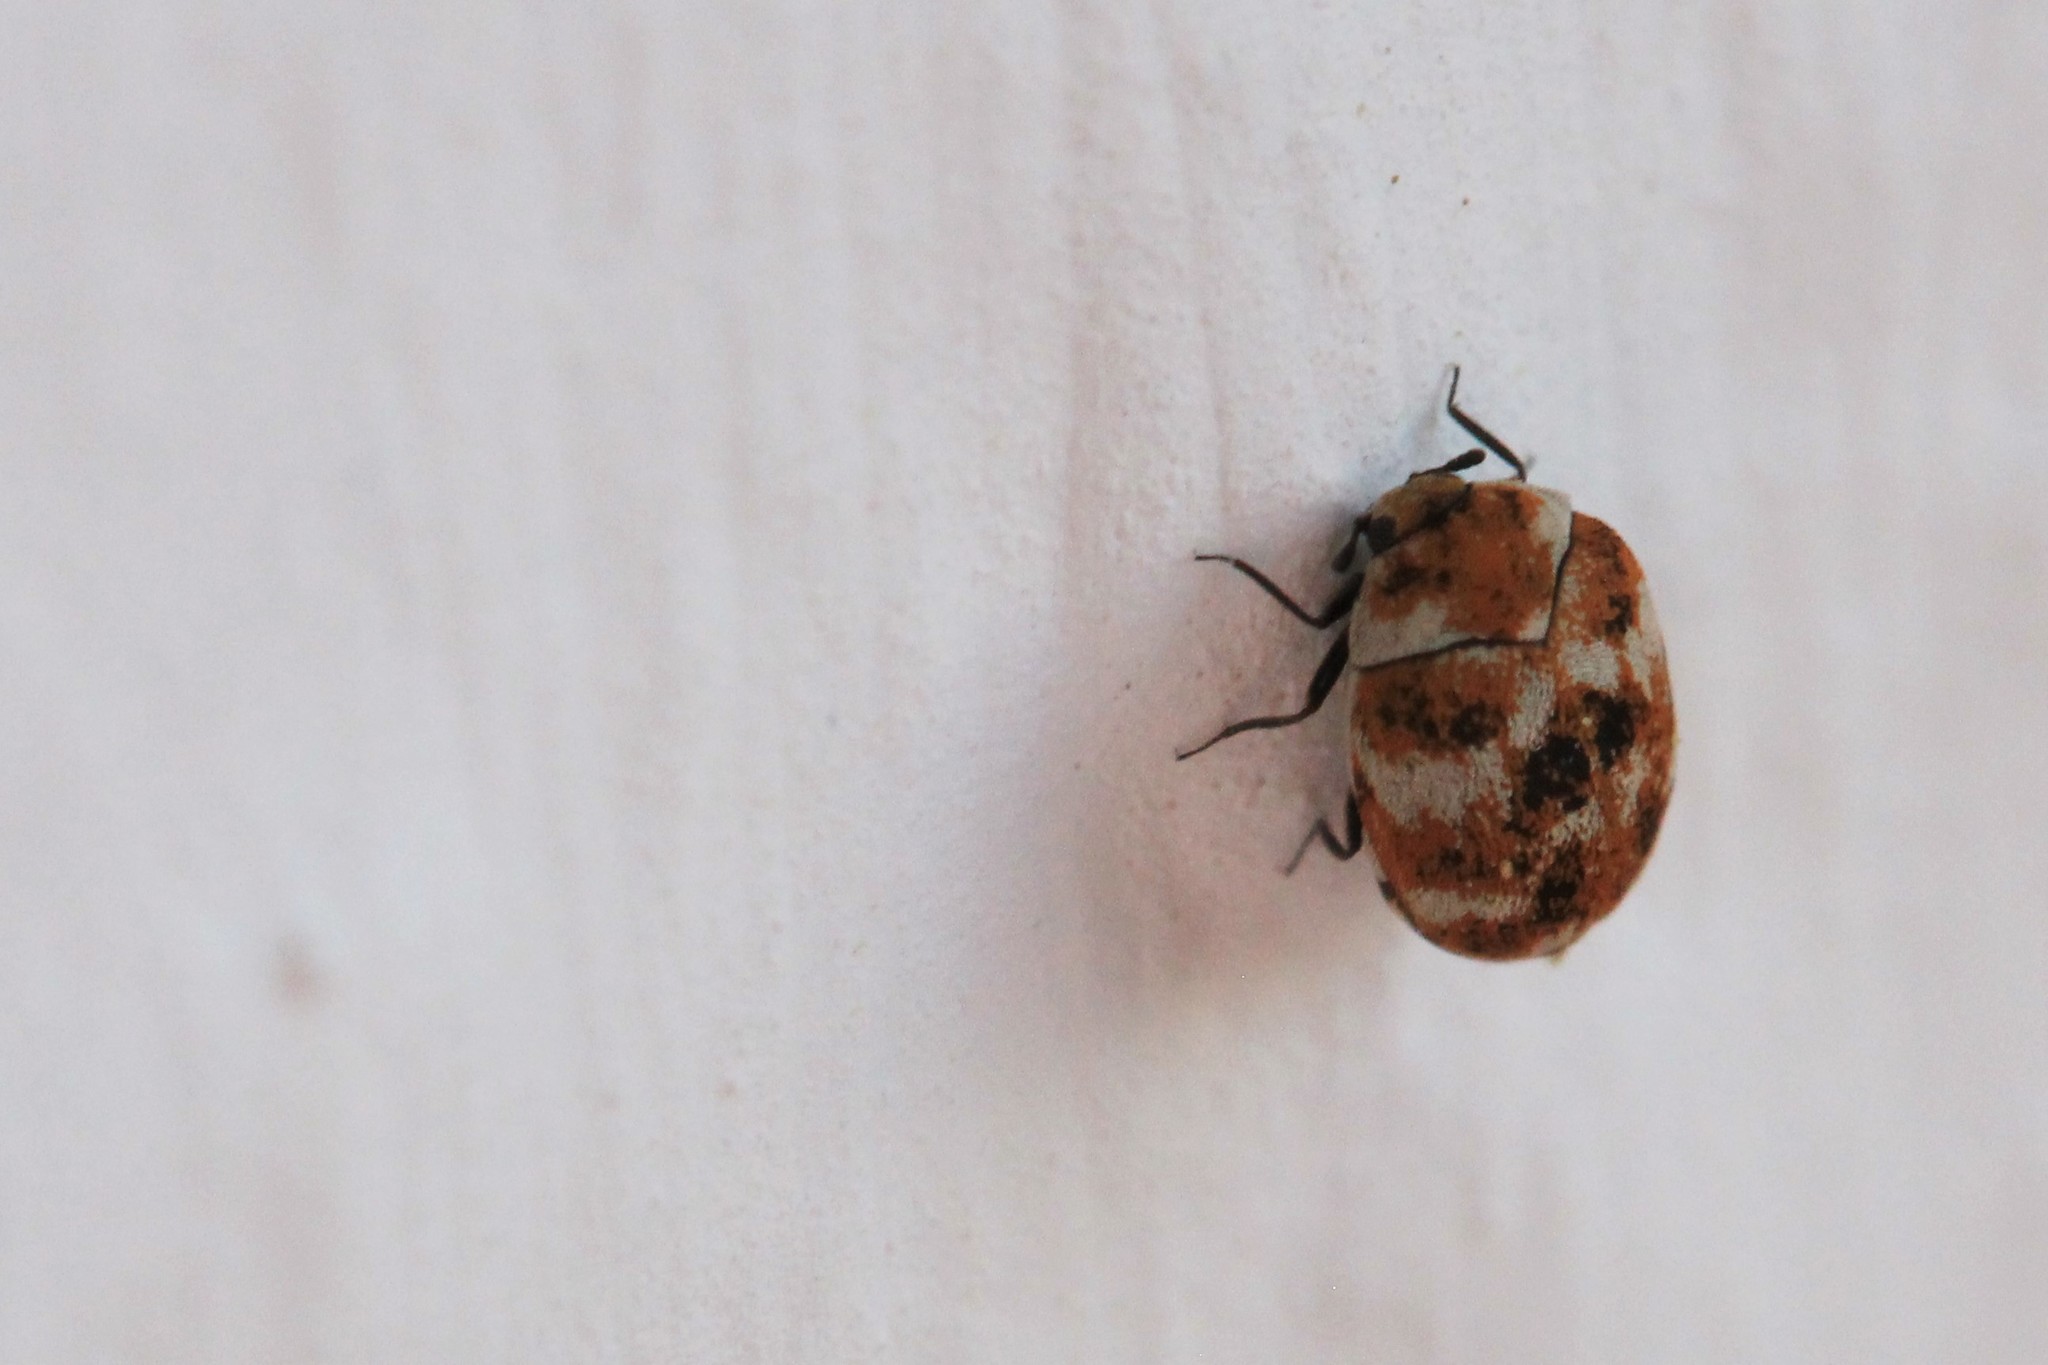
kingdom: Animalia
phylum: Arthropoda
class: Insecta
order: Coleoptera
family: Dermestidae
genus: Anthrenus
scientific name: Anthrenus verbasci
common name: Varied carpet beetle
